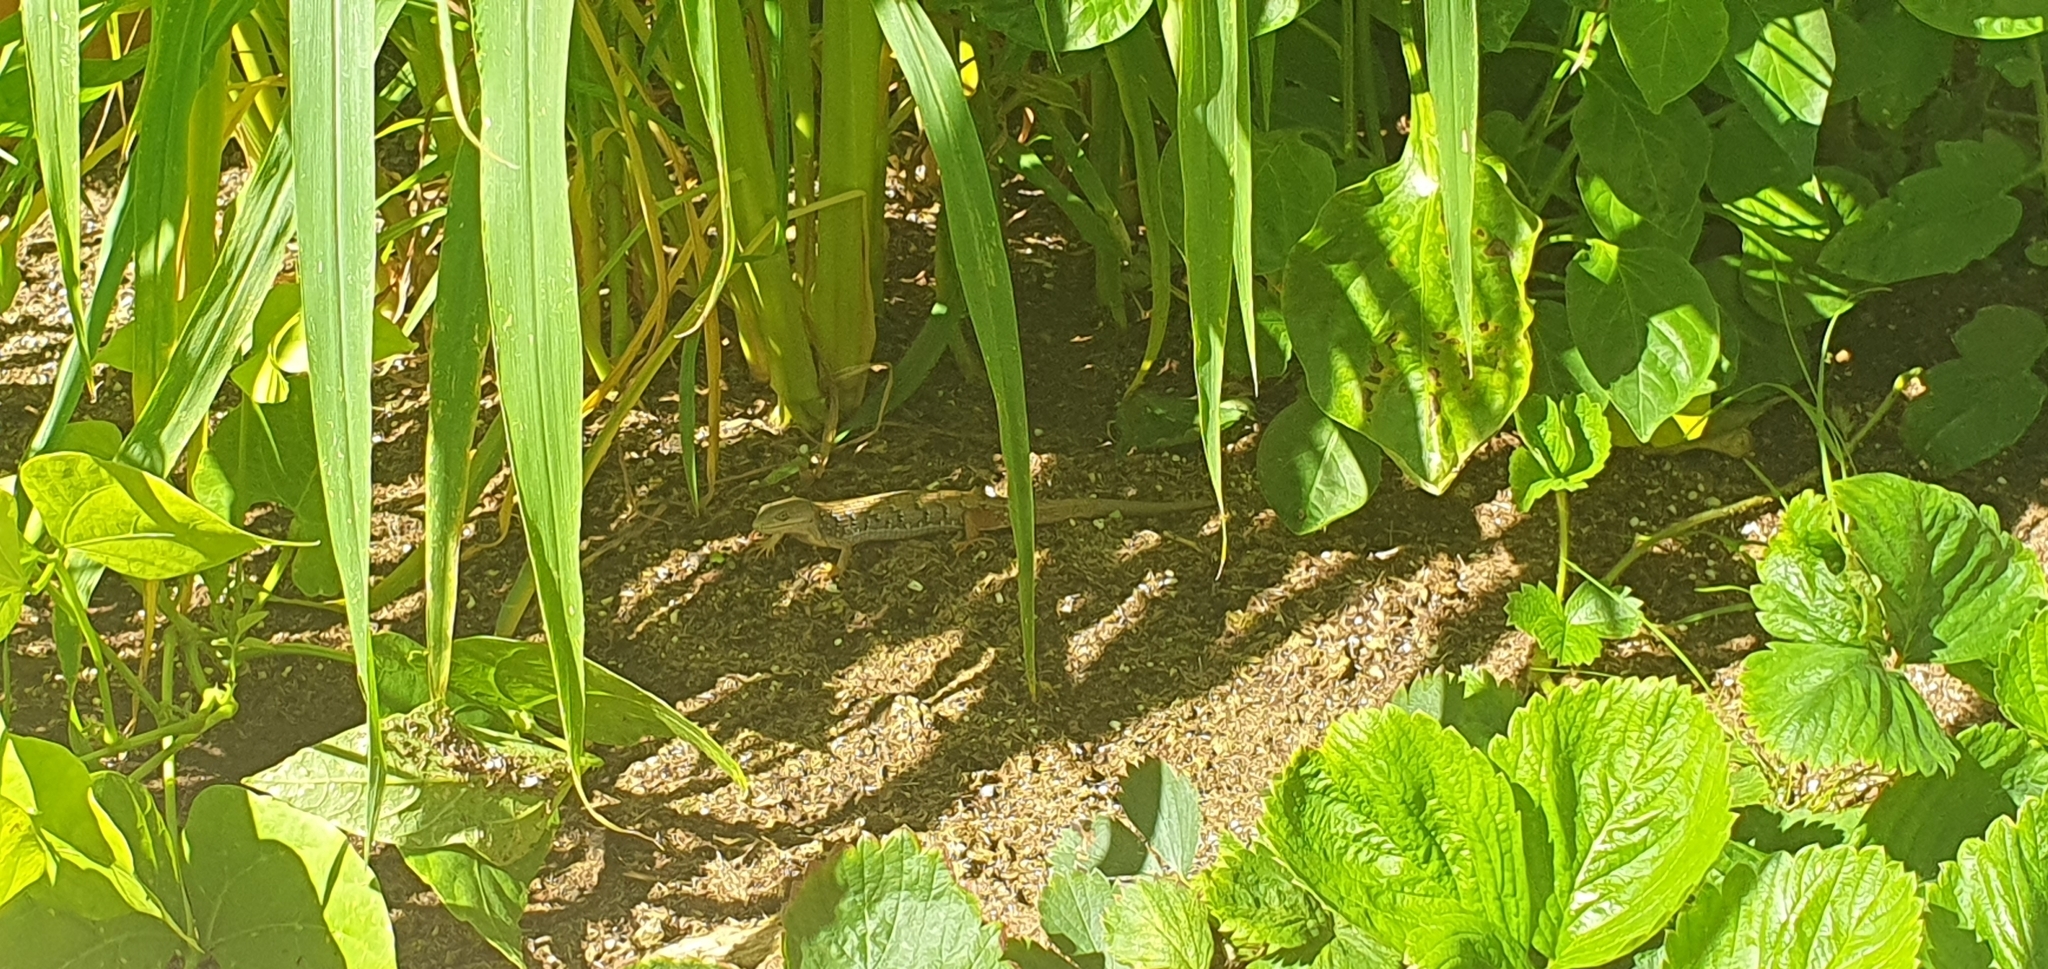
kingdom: Animalia
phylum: Chordata
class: Squamata
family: Anguidae
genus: Elgaria
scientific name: Elgaria multicarinata
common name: Southern alligator lizard
